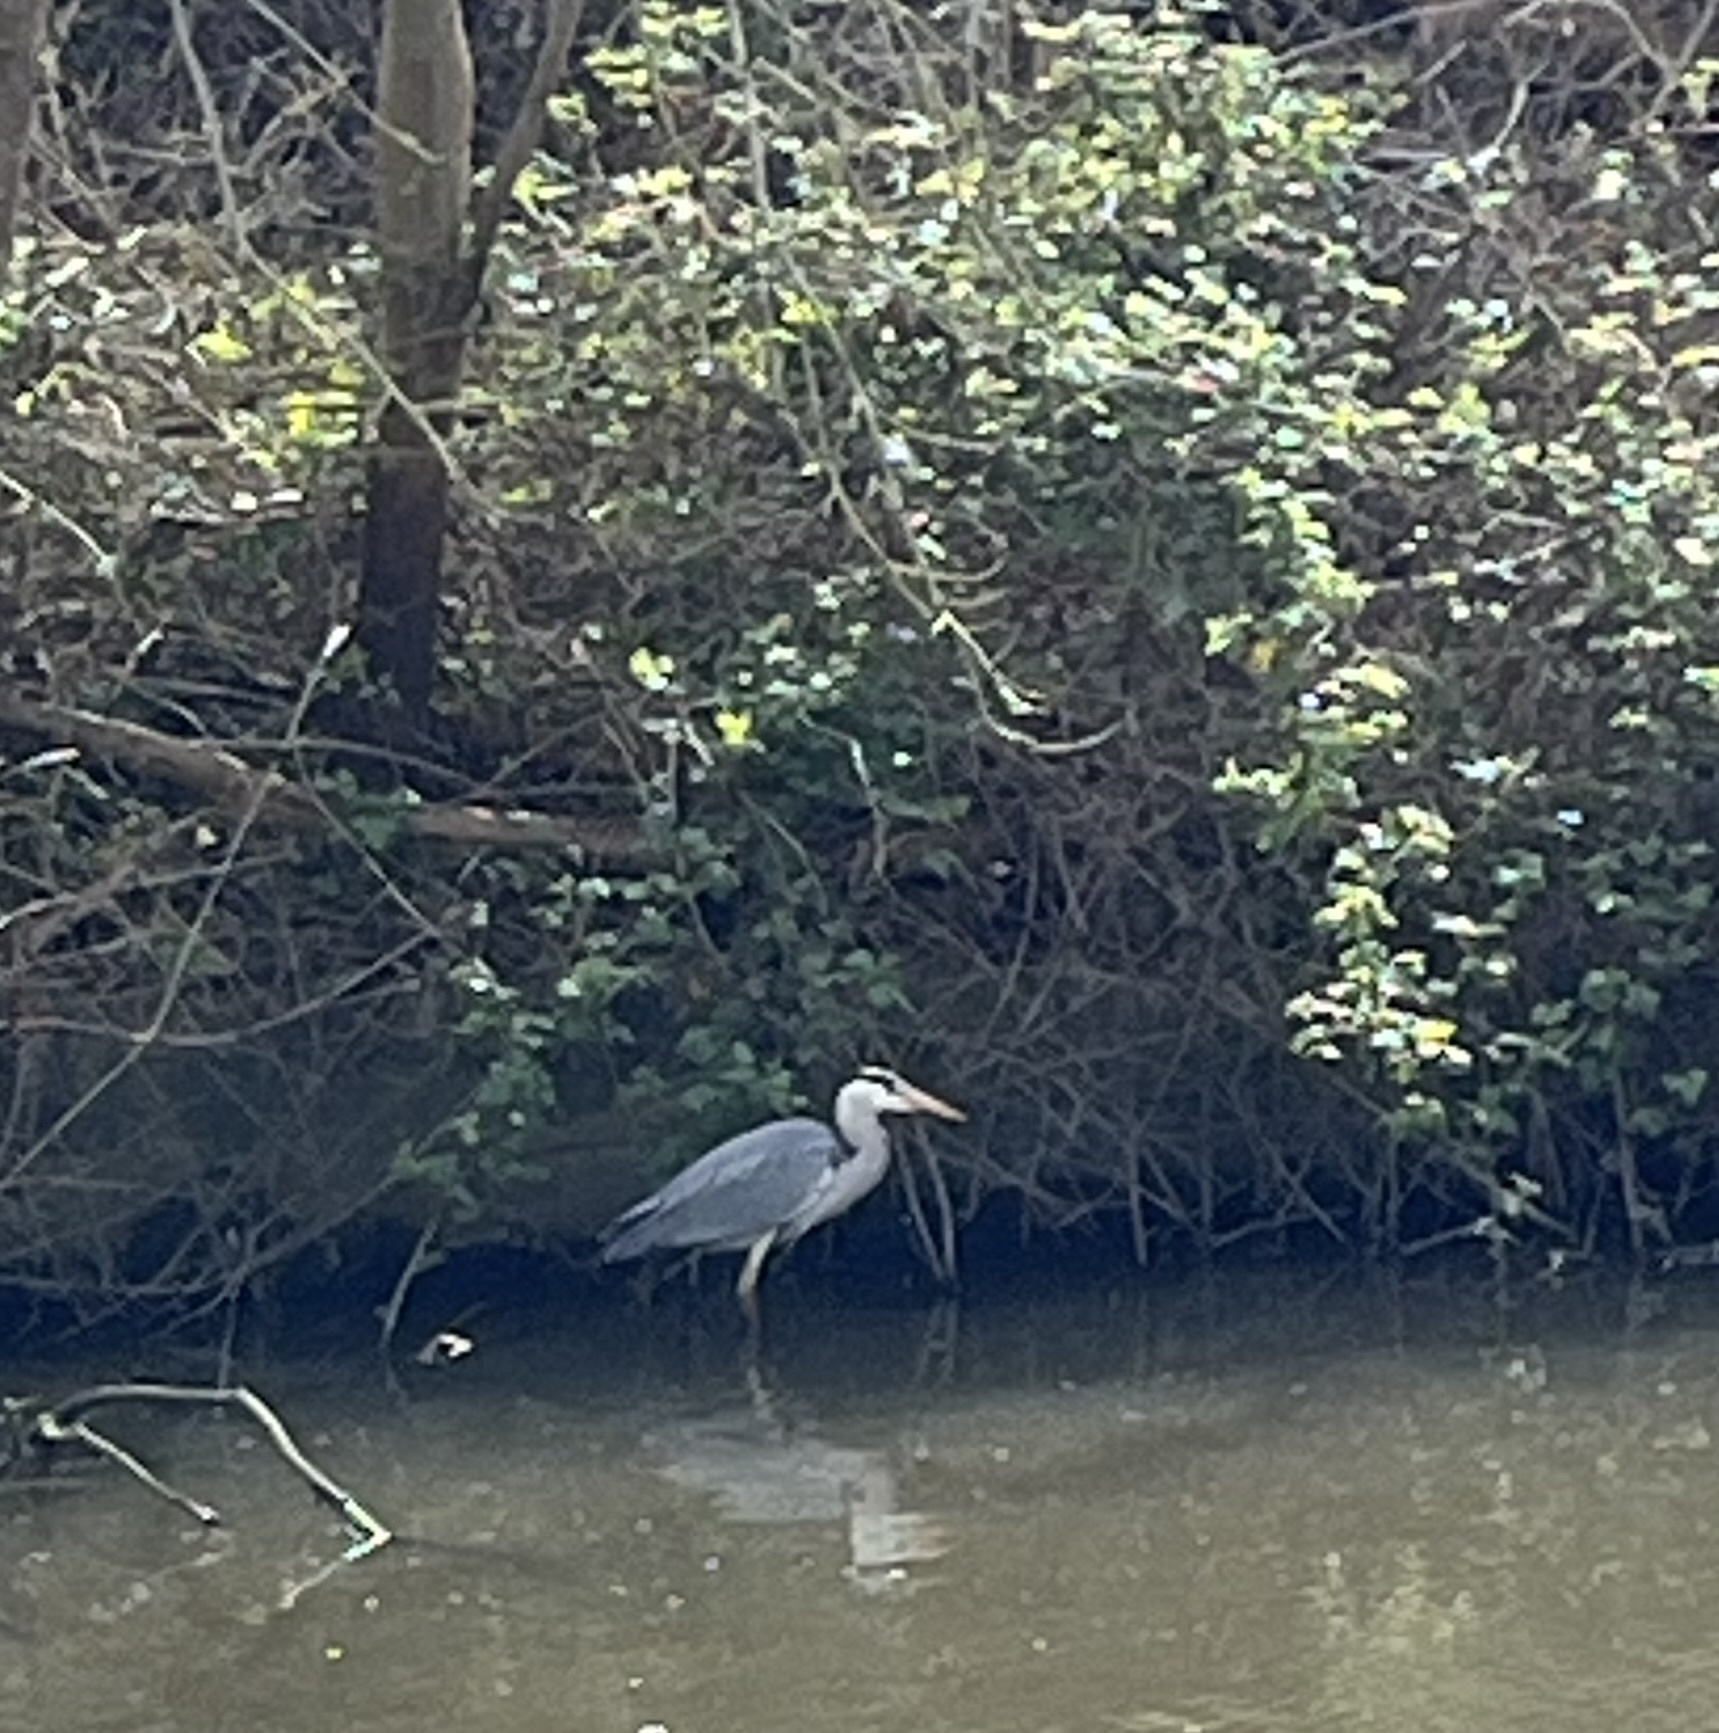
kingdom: Animalia
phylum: Chordata
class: Aves
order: Pelecaniformes
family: Ardeidae
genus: Ardea
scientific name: Ardea cinerea
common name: Grey heron
